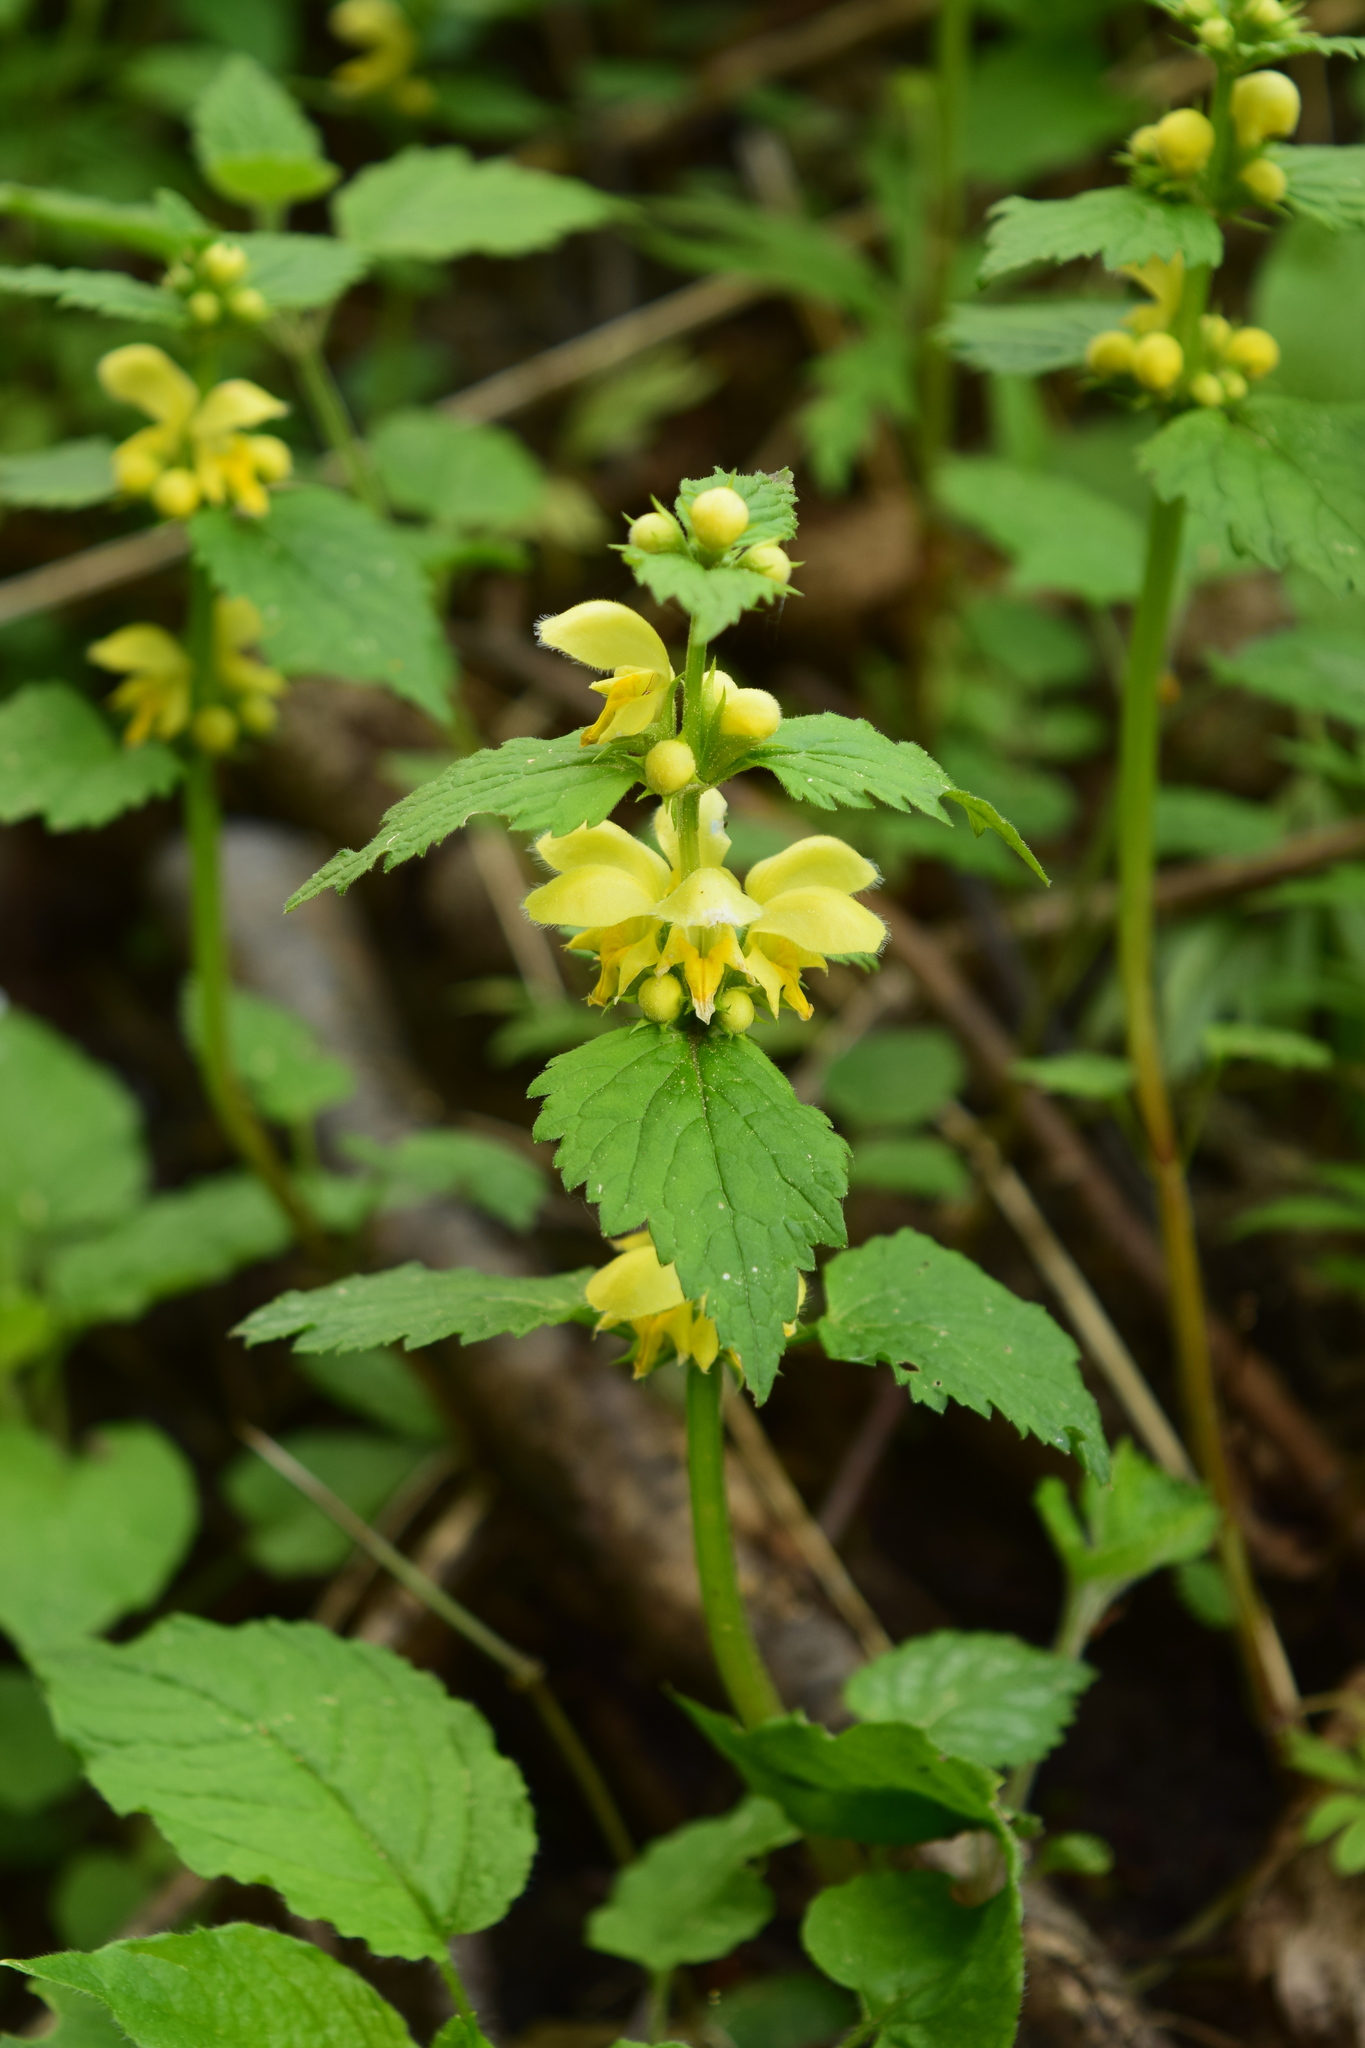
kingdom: Plantae
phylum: Tracheophyta
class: Magnoliopsida
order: Lamiales
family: Lamiaceae
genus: Lamium
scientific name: Lamium galeobdolon
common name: Yellow archangel
